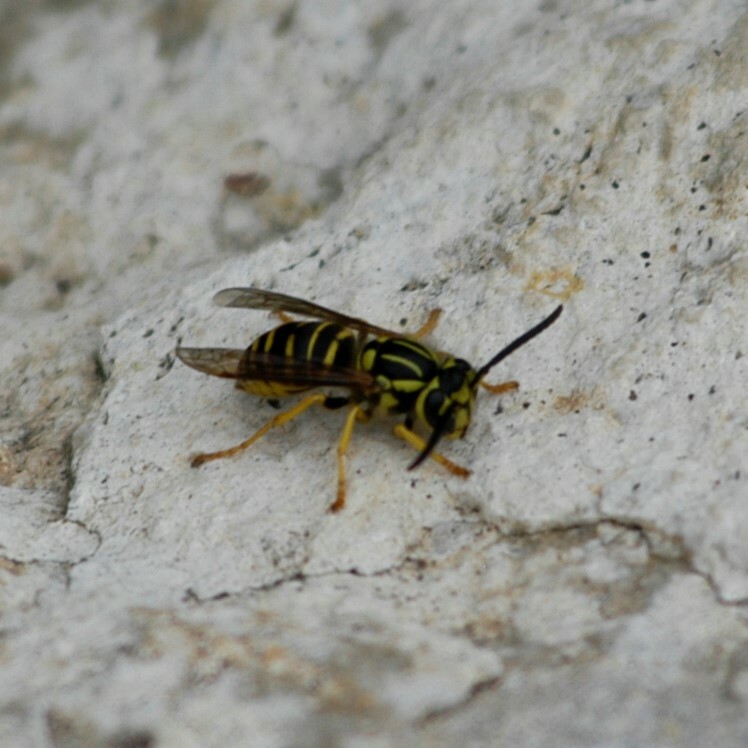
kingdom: Animalia
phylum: Arthropoda
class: Insecta
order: Hymenoptera
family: Vespidae
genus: Vespula
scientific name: Vespula squamosa
